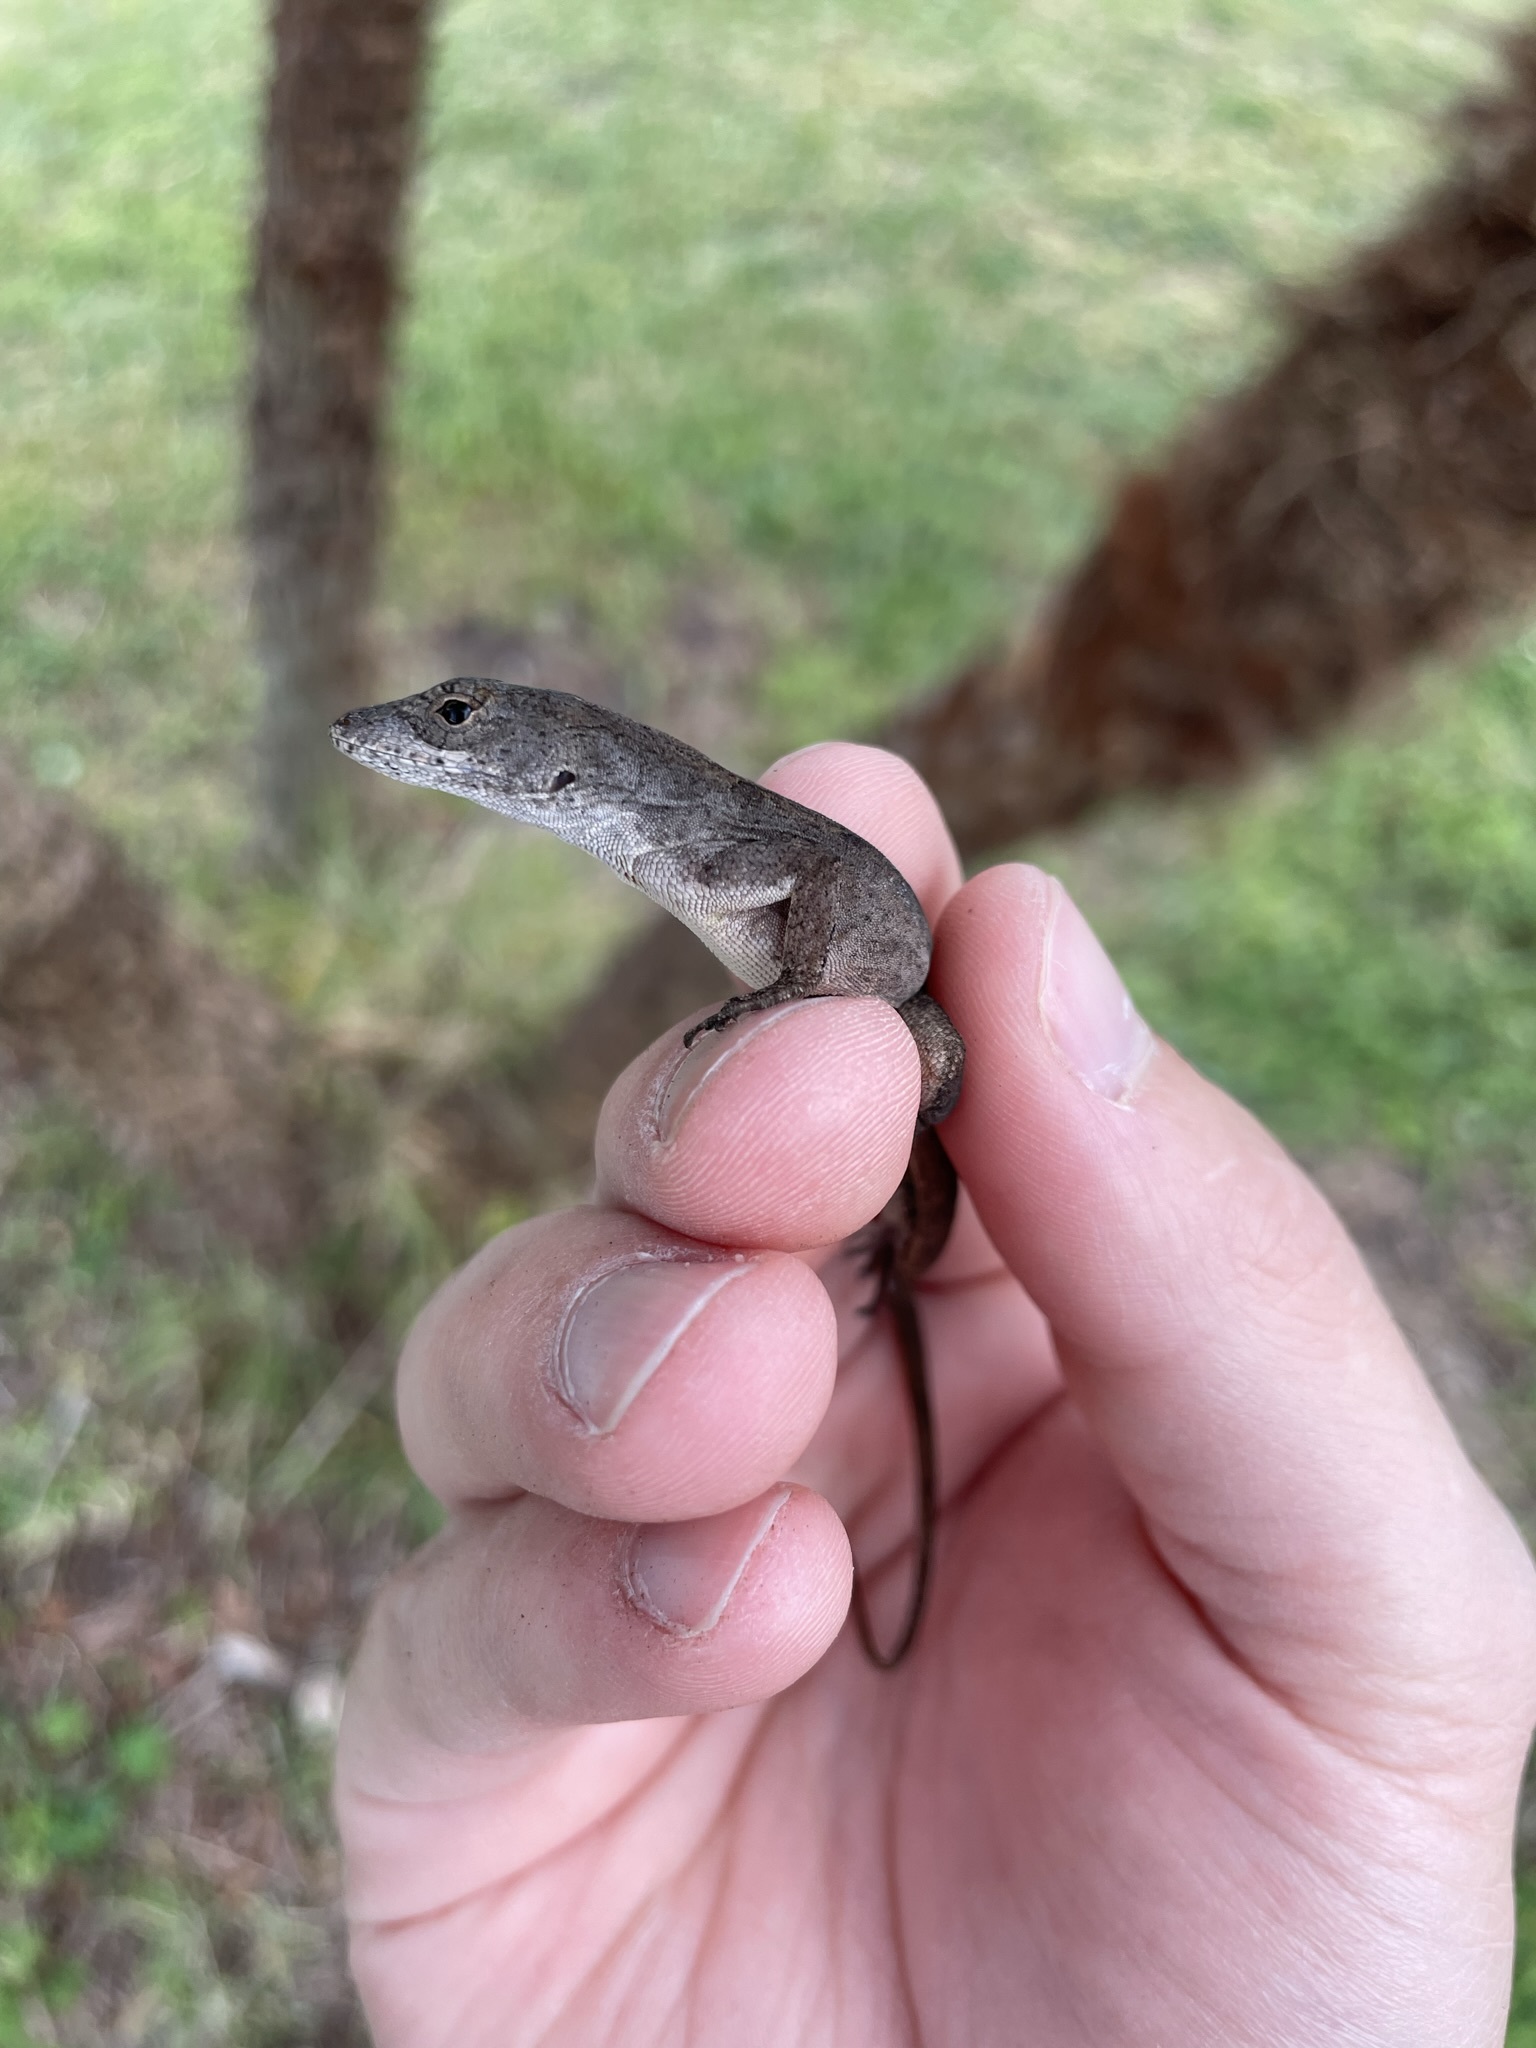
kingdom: Animalia
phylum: Chordata
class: Squamata
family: Dactyloidae
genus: Anolis
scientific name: Anolis sagrei
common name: Brown anole
